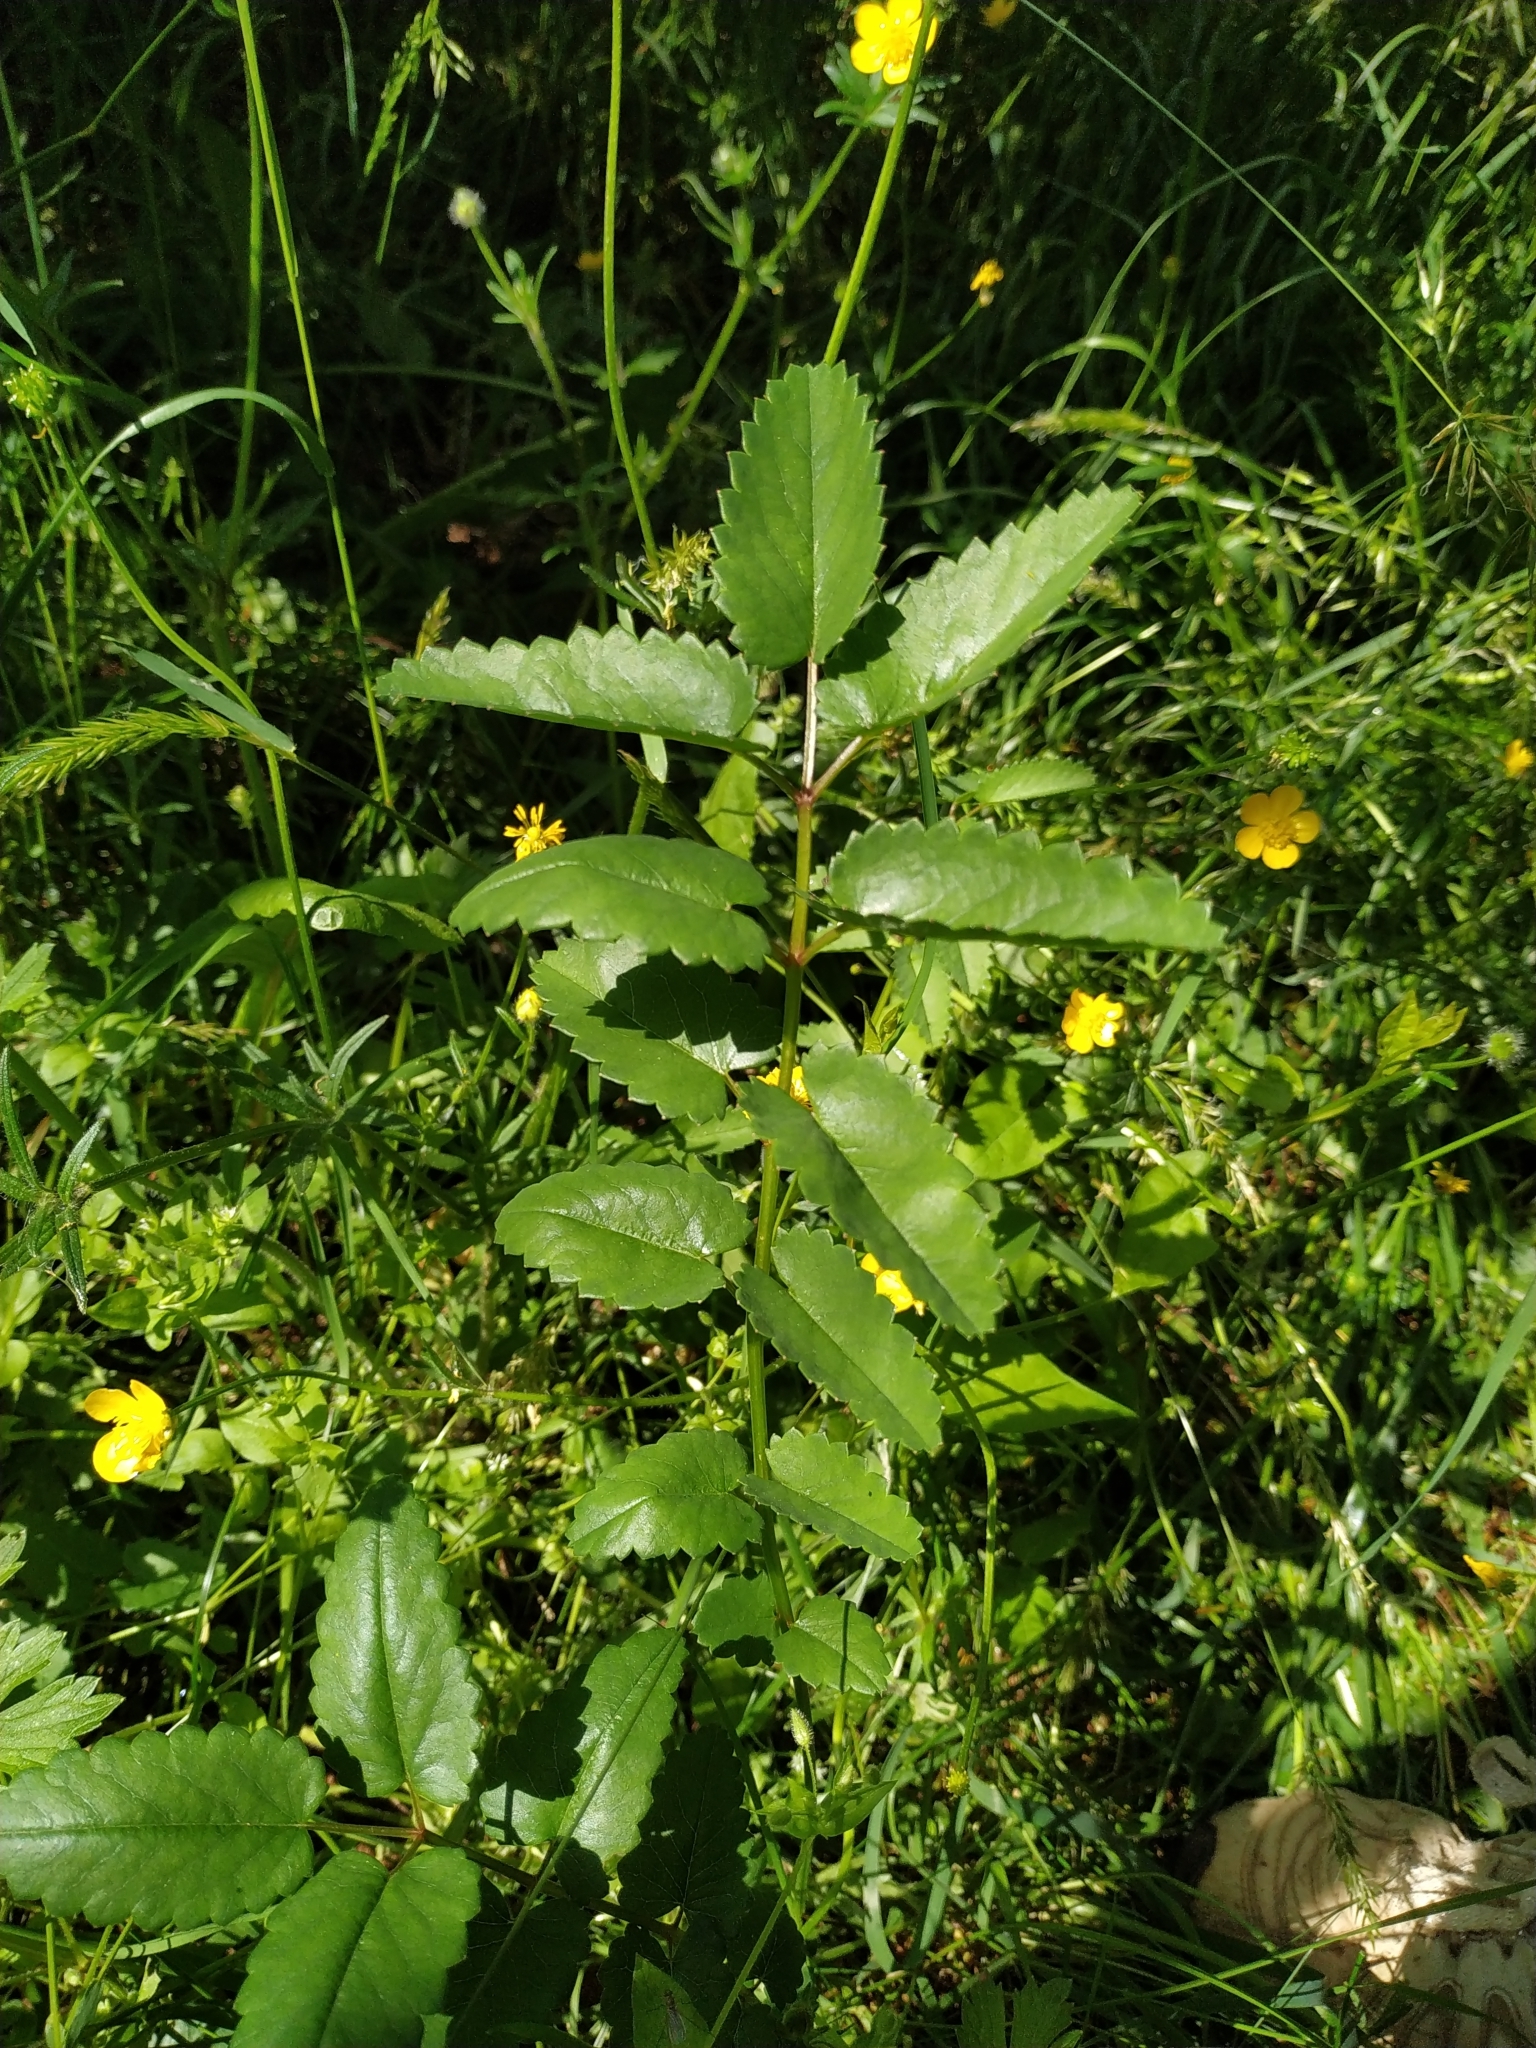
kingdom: Plantae
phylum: Tracheophyta
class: Magnoliopsida
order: Rosales
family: Rosaceae
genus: Sanguisorba
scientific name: Sanguisorba officinalis
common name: Great burnet
